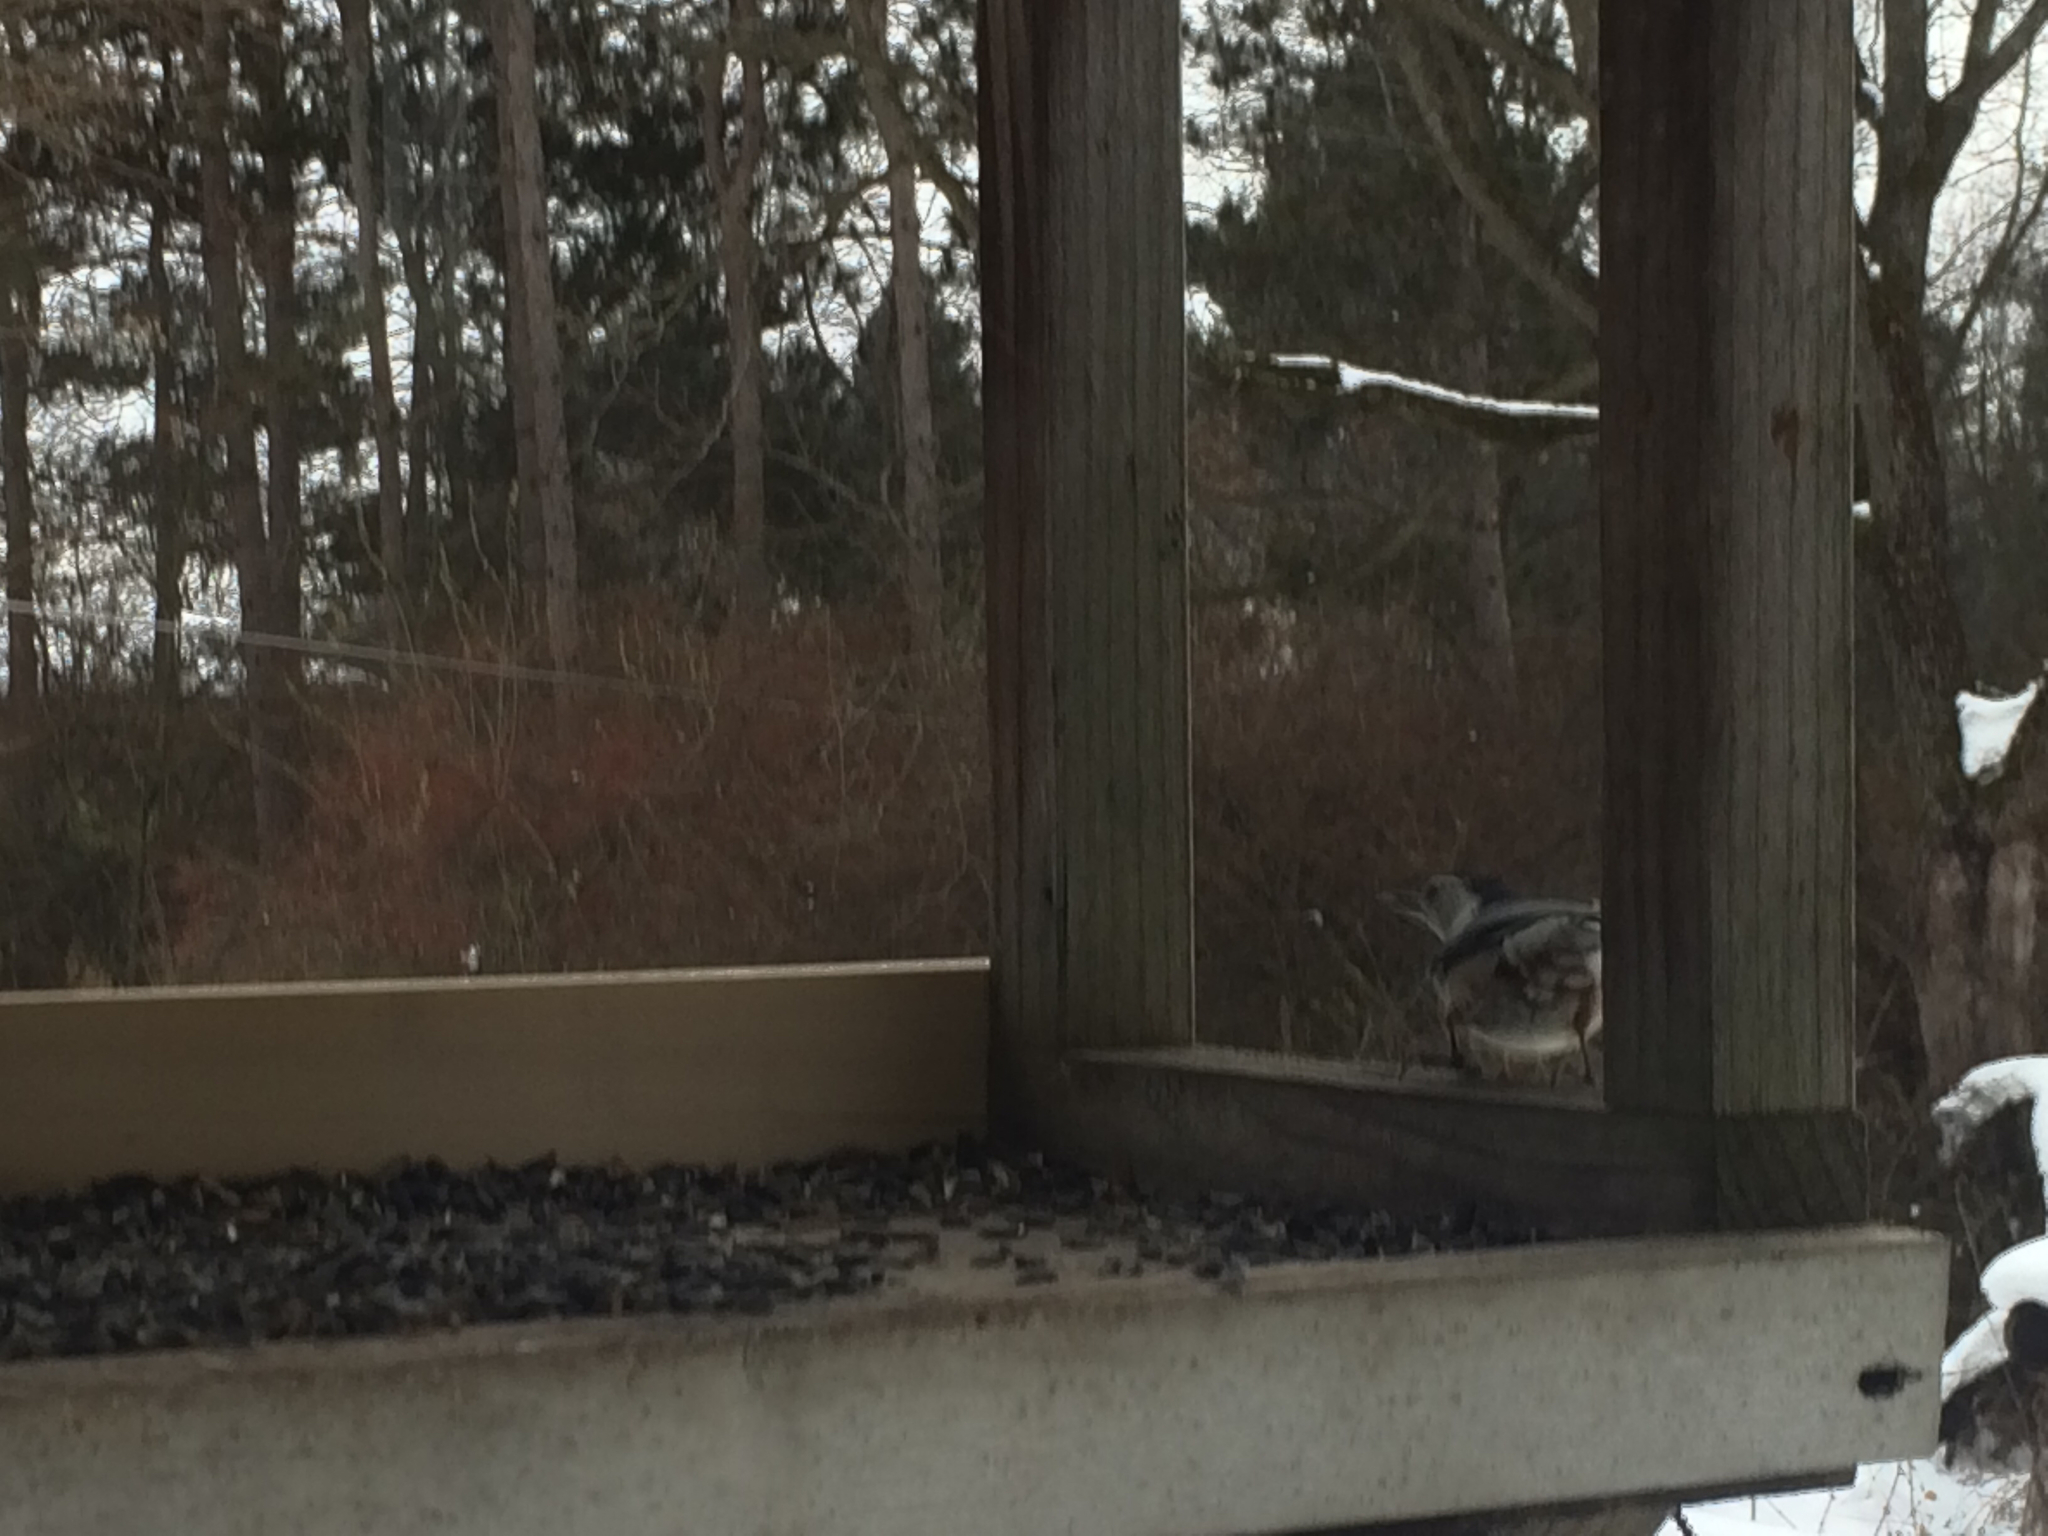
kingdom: Animalia
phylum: Chordata
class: Aves
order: Passeriformes
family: Sittidae
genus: Sitta
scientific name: Sitta carolinensis
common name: White-breasted nuthatch
